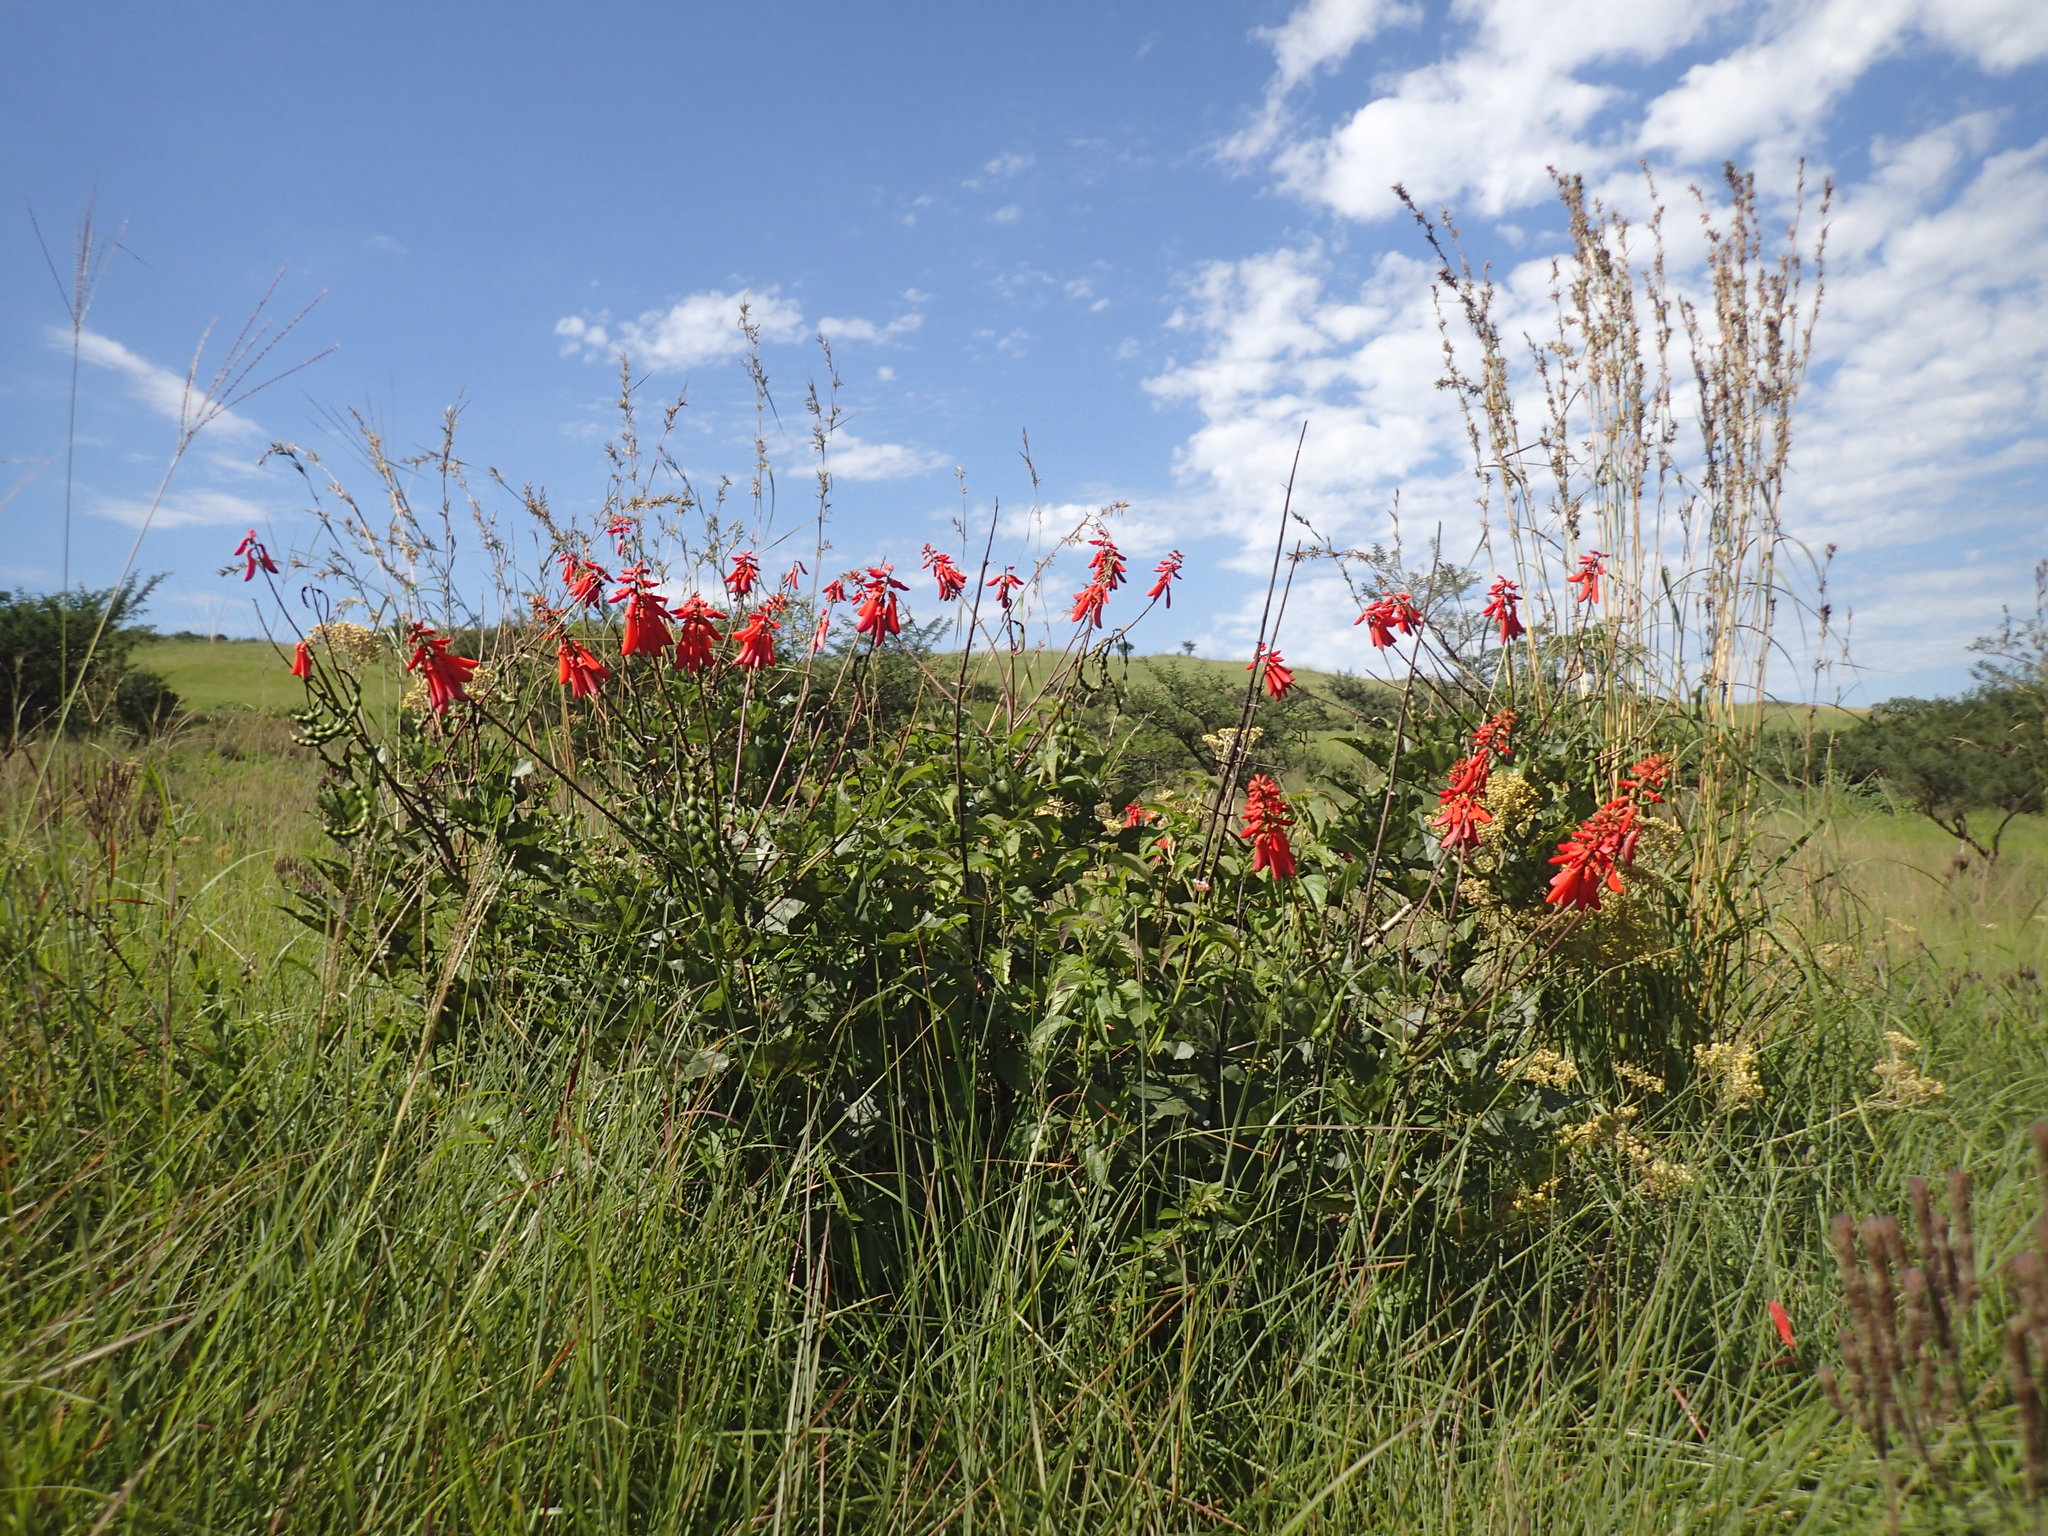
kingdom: Plantae
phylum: Tracheophyta
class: Magnoliopsida
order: Fabales
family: Fabaceae
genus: Erythrina
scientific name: Erythrina humeana
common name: Dwarf coral tree
